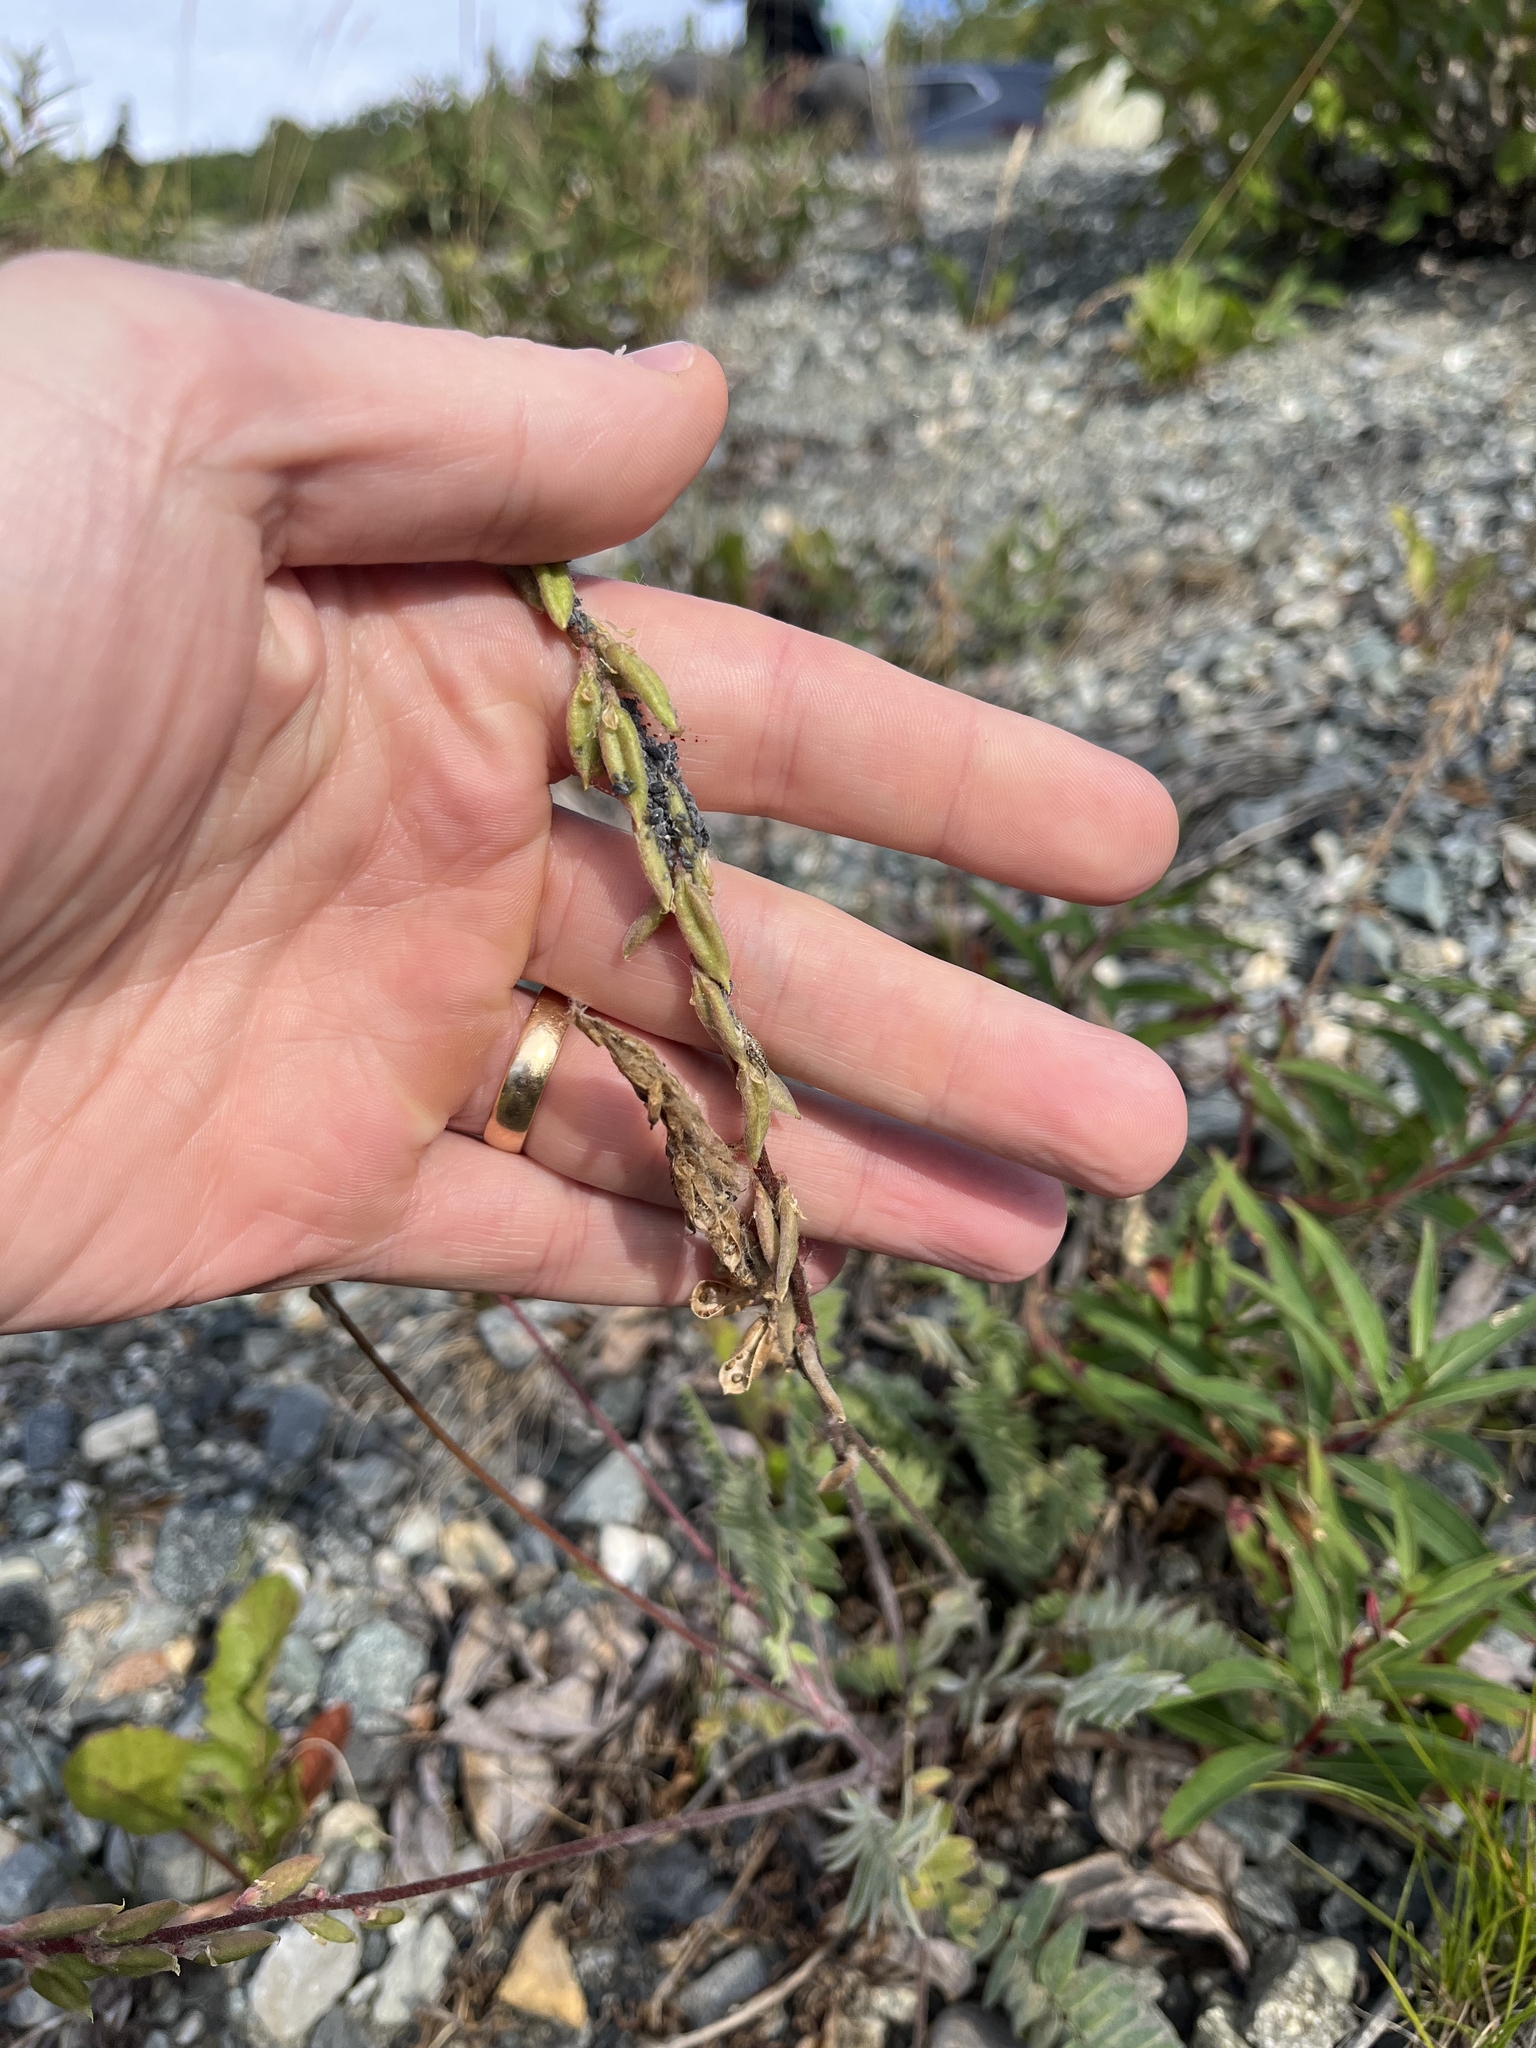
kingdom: Plantae
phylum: Tracheophyta
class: Magnoliopsida
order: Fabales
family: Fabaceae
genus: Oxytropis
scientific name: Oxytropis deflexa
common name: Stemmed oxytrope
